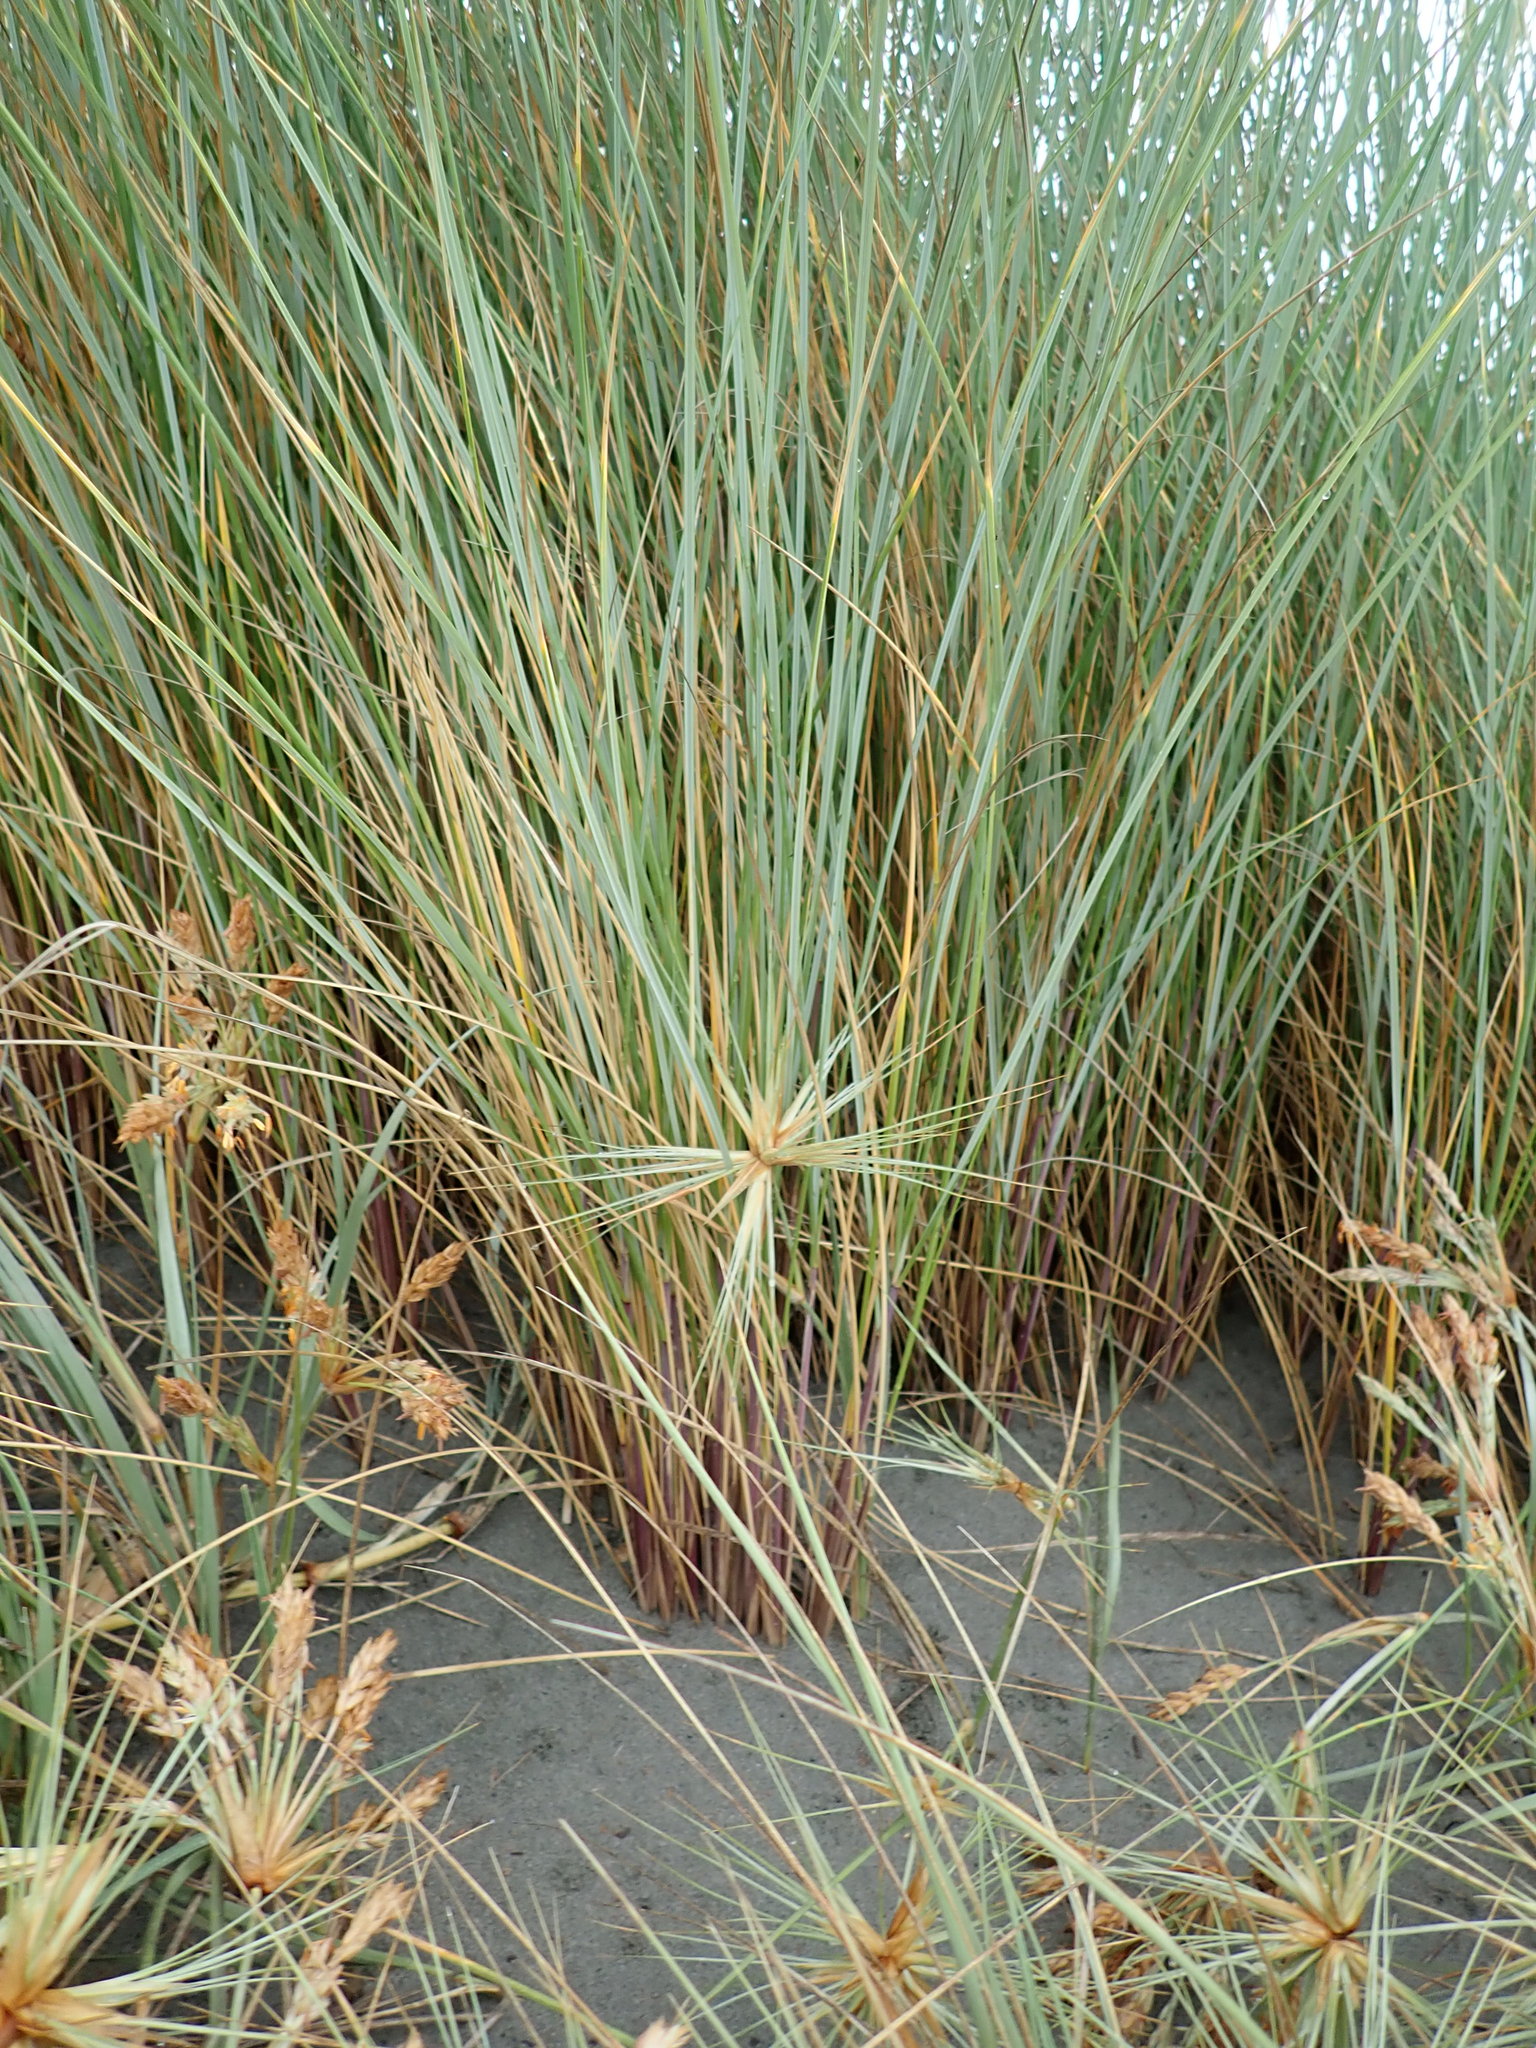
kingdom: Plantae
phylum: Tracheophyta
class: Liliopsida
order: Poales
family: Poaceae
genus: Calamagrostis
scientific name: Calamagrostis arenaria
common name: European beachgrass
